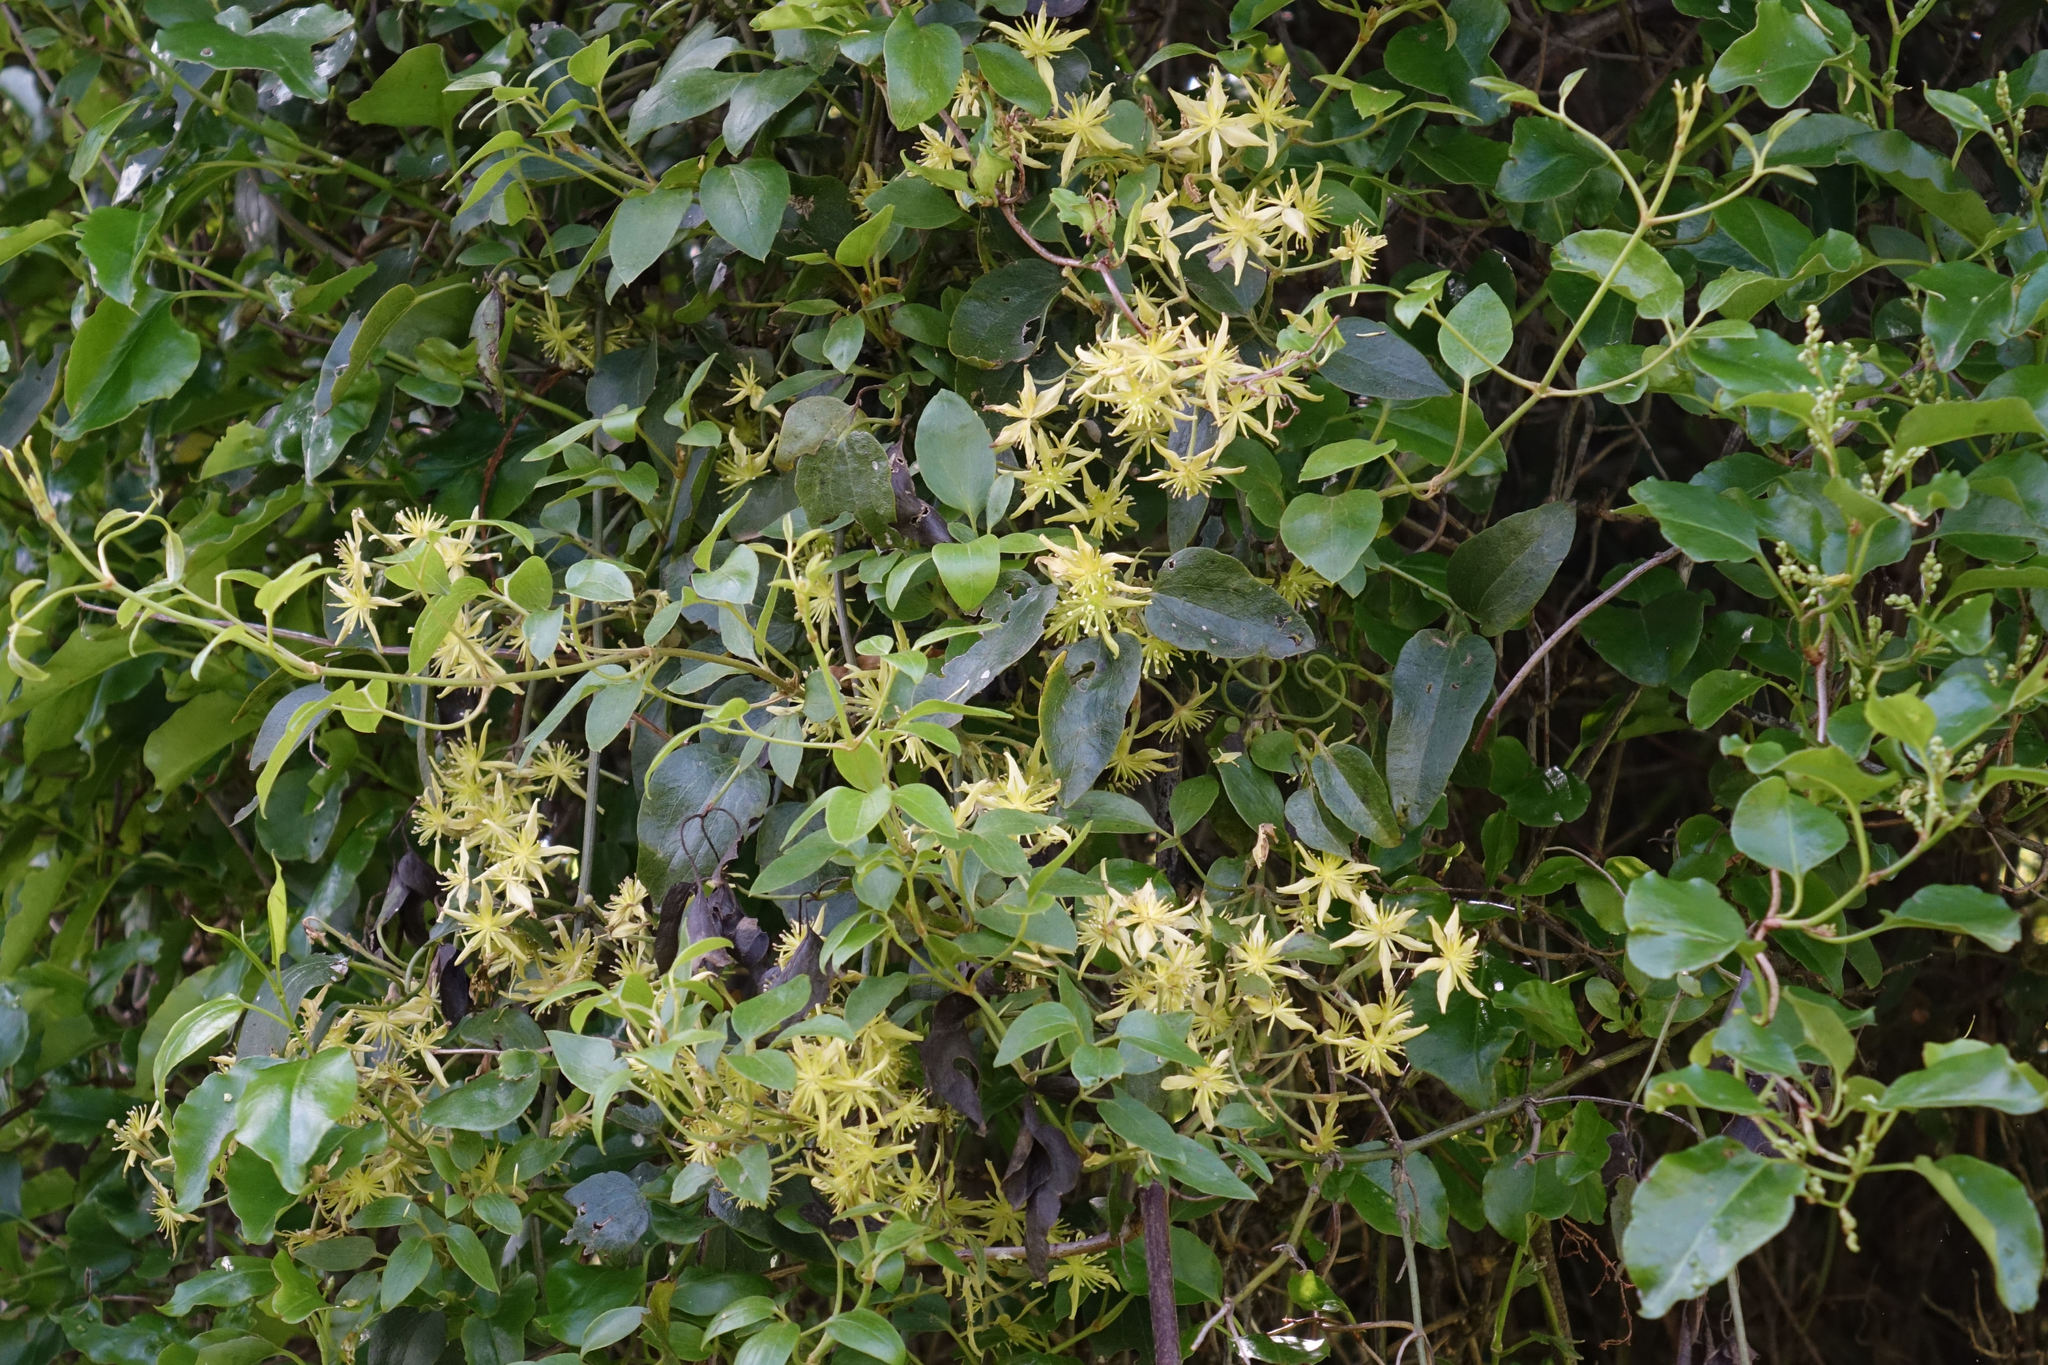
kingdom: Plantae
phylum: Tracheophyta
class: Magnoliopsida
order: Ranunculales
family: Ranunculaceae
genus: Clematis
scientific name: Clematis foetida
